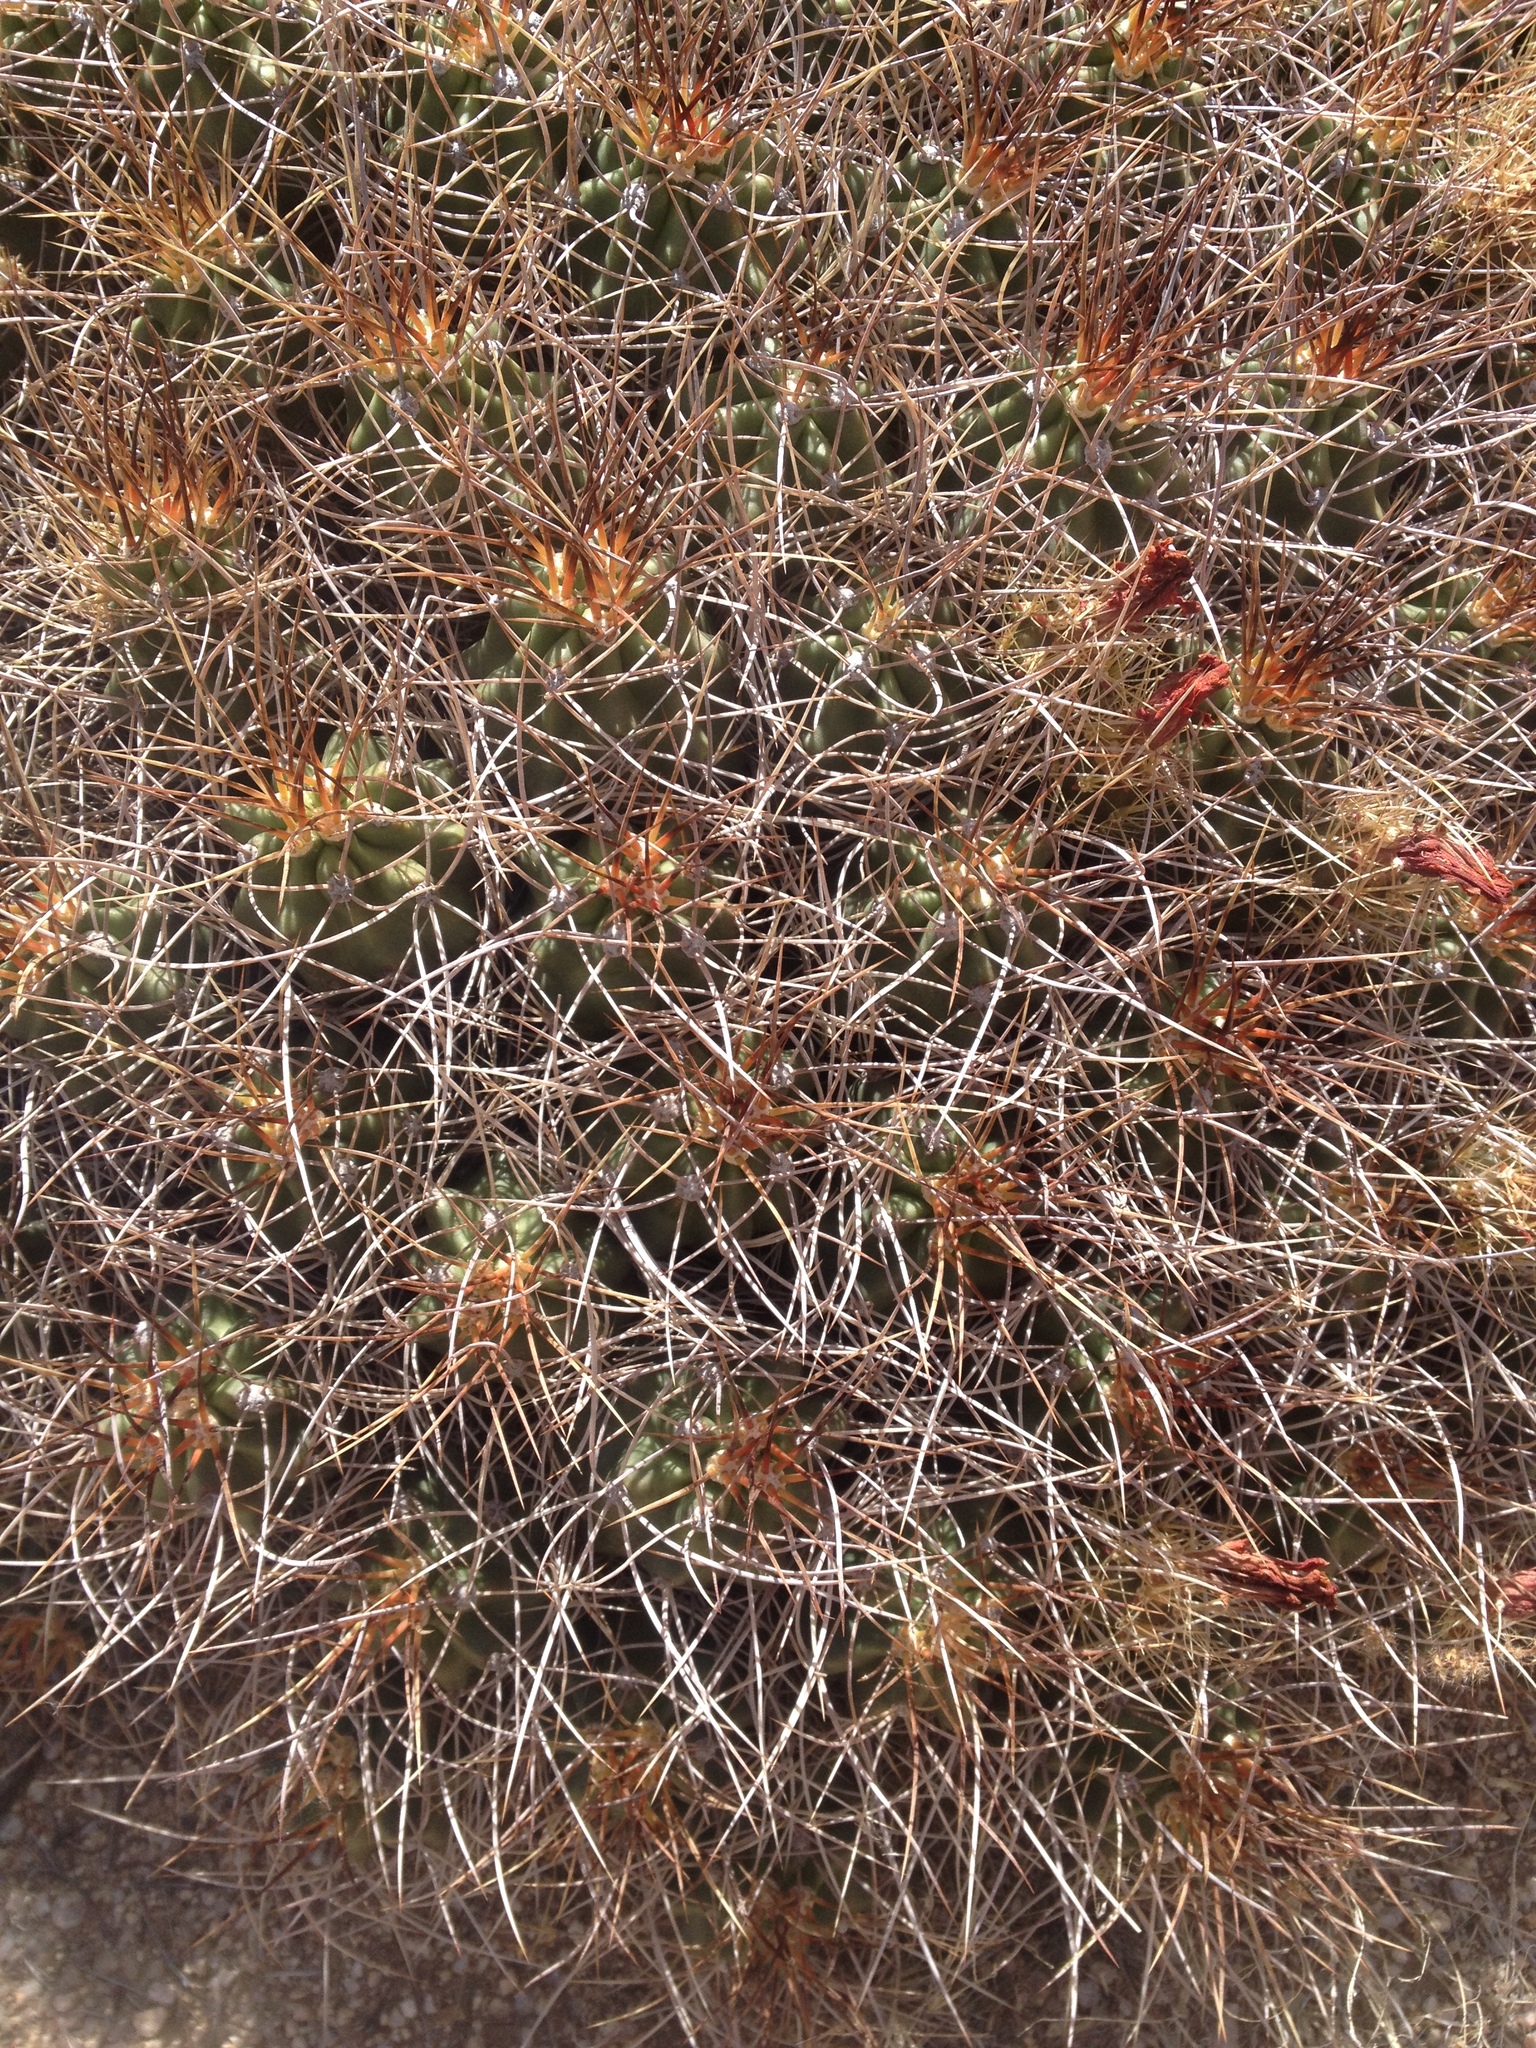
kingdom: Plantae
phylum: Tracheophyta
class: Magnoliopsida
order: Caryophyllales
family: Cactaceae
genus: Echinocereus
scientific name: Echinocereus triglochidiatus
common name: Claretcup hedgehog
